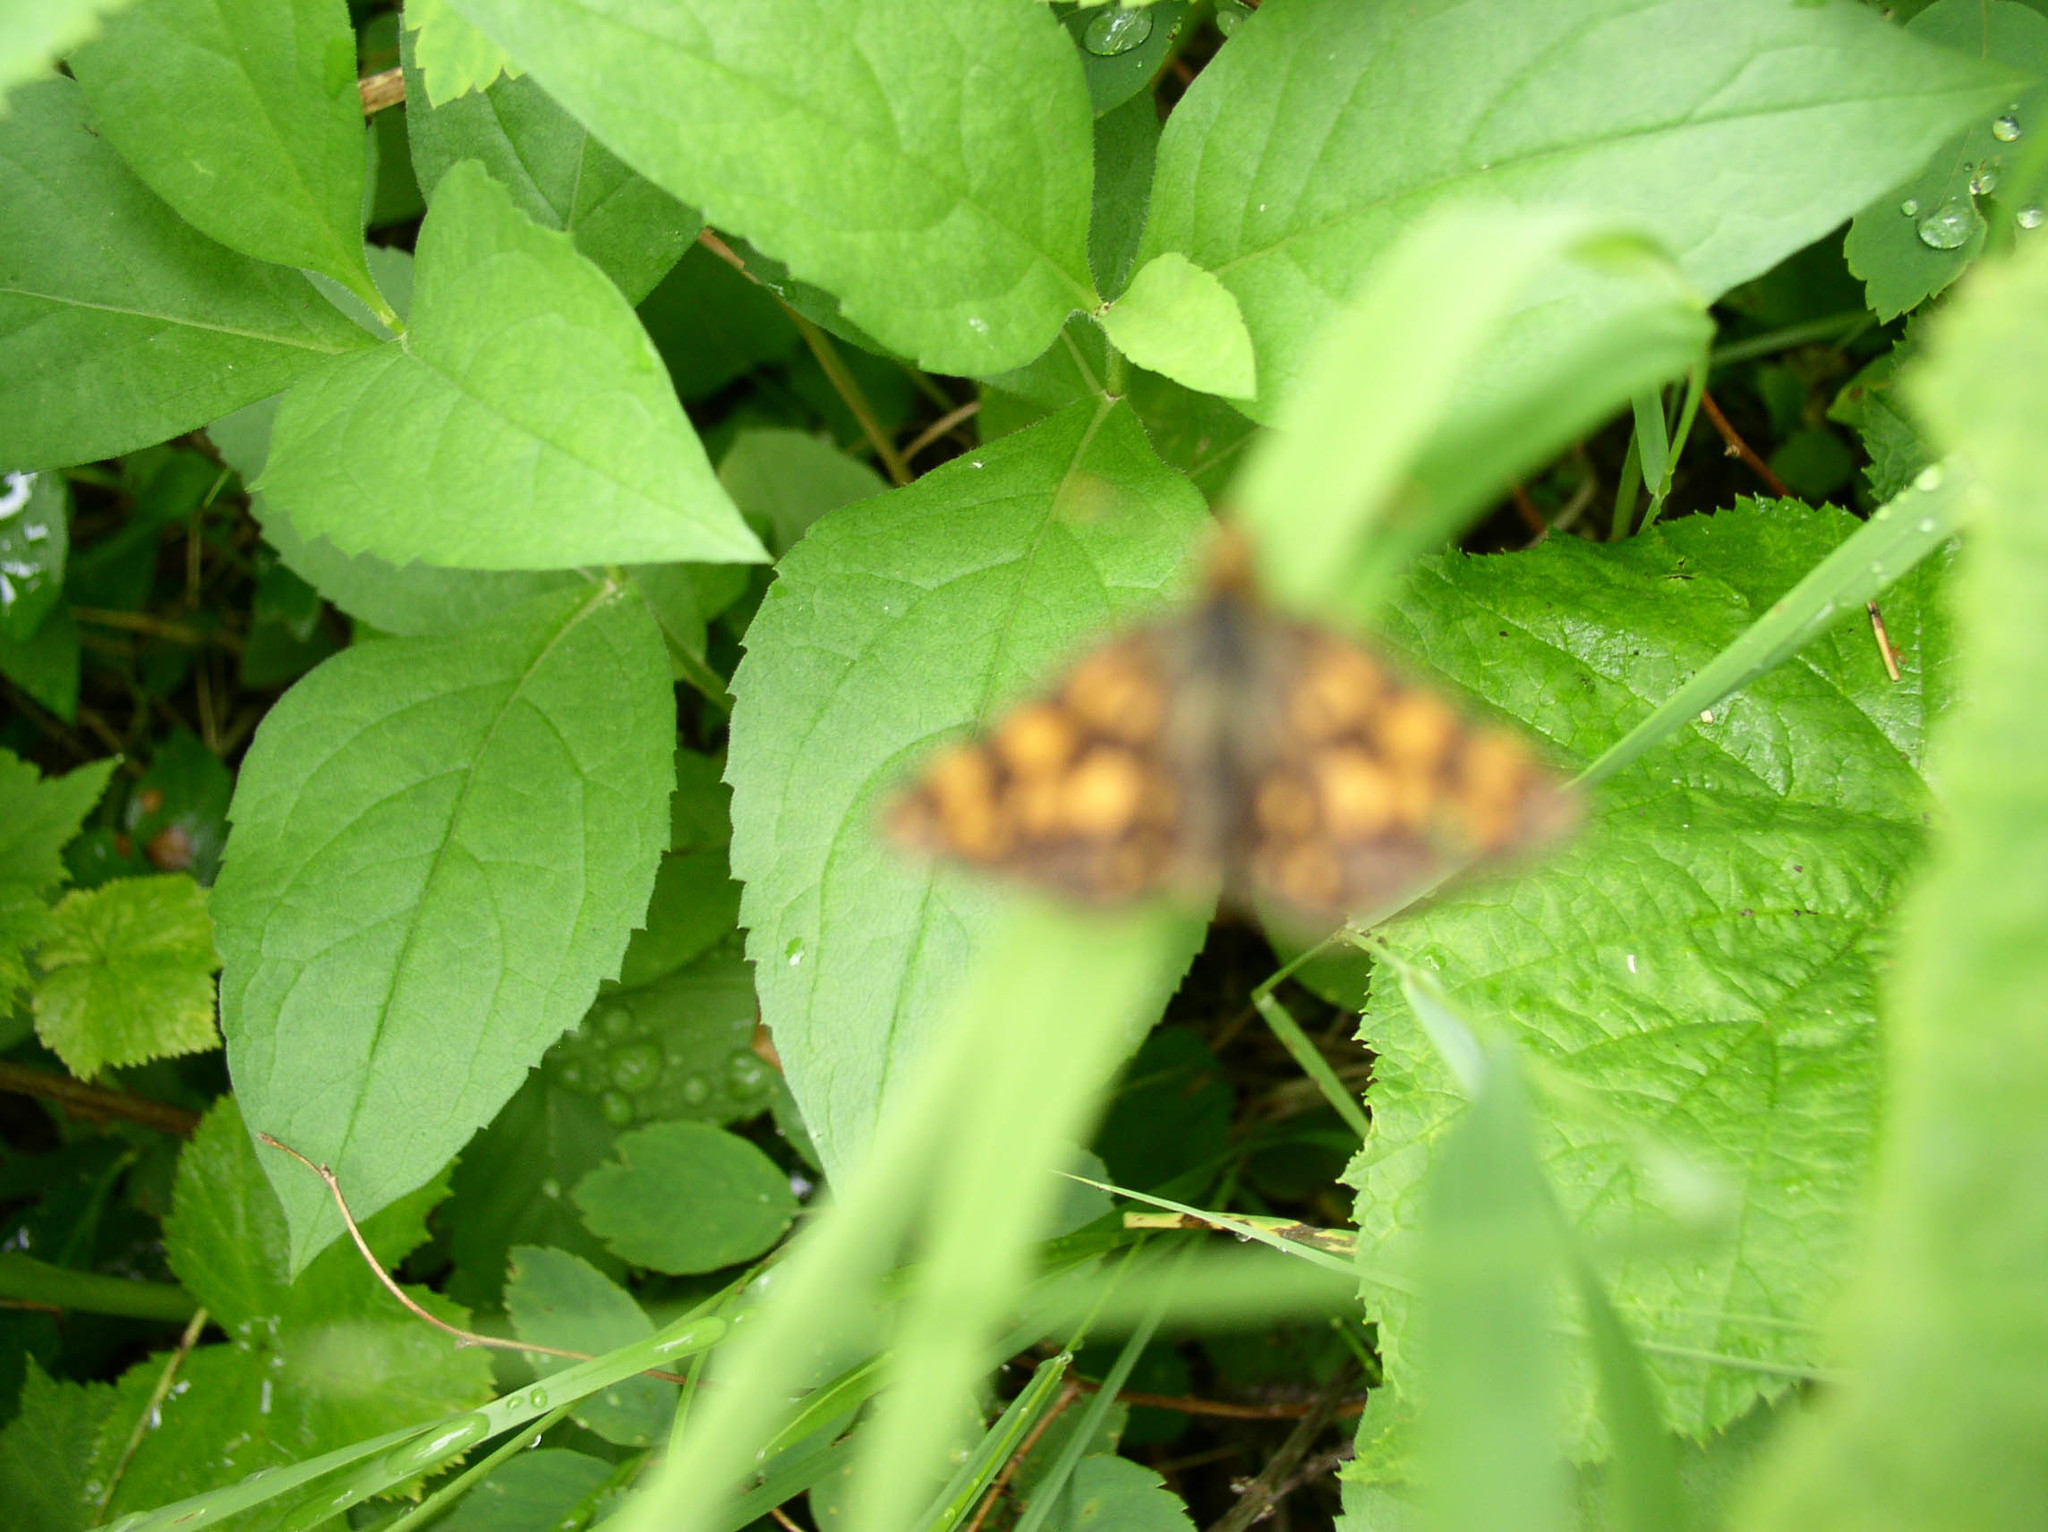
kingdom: Animalia
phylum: Arthropoda
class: Insecta
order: Lepidoptera
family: Hesperiidae
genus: Carterocephalus
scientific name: Carterocephalus skada
